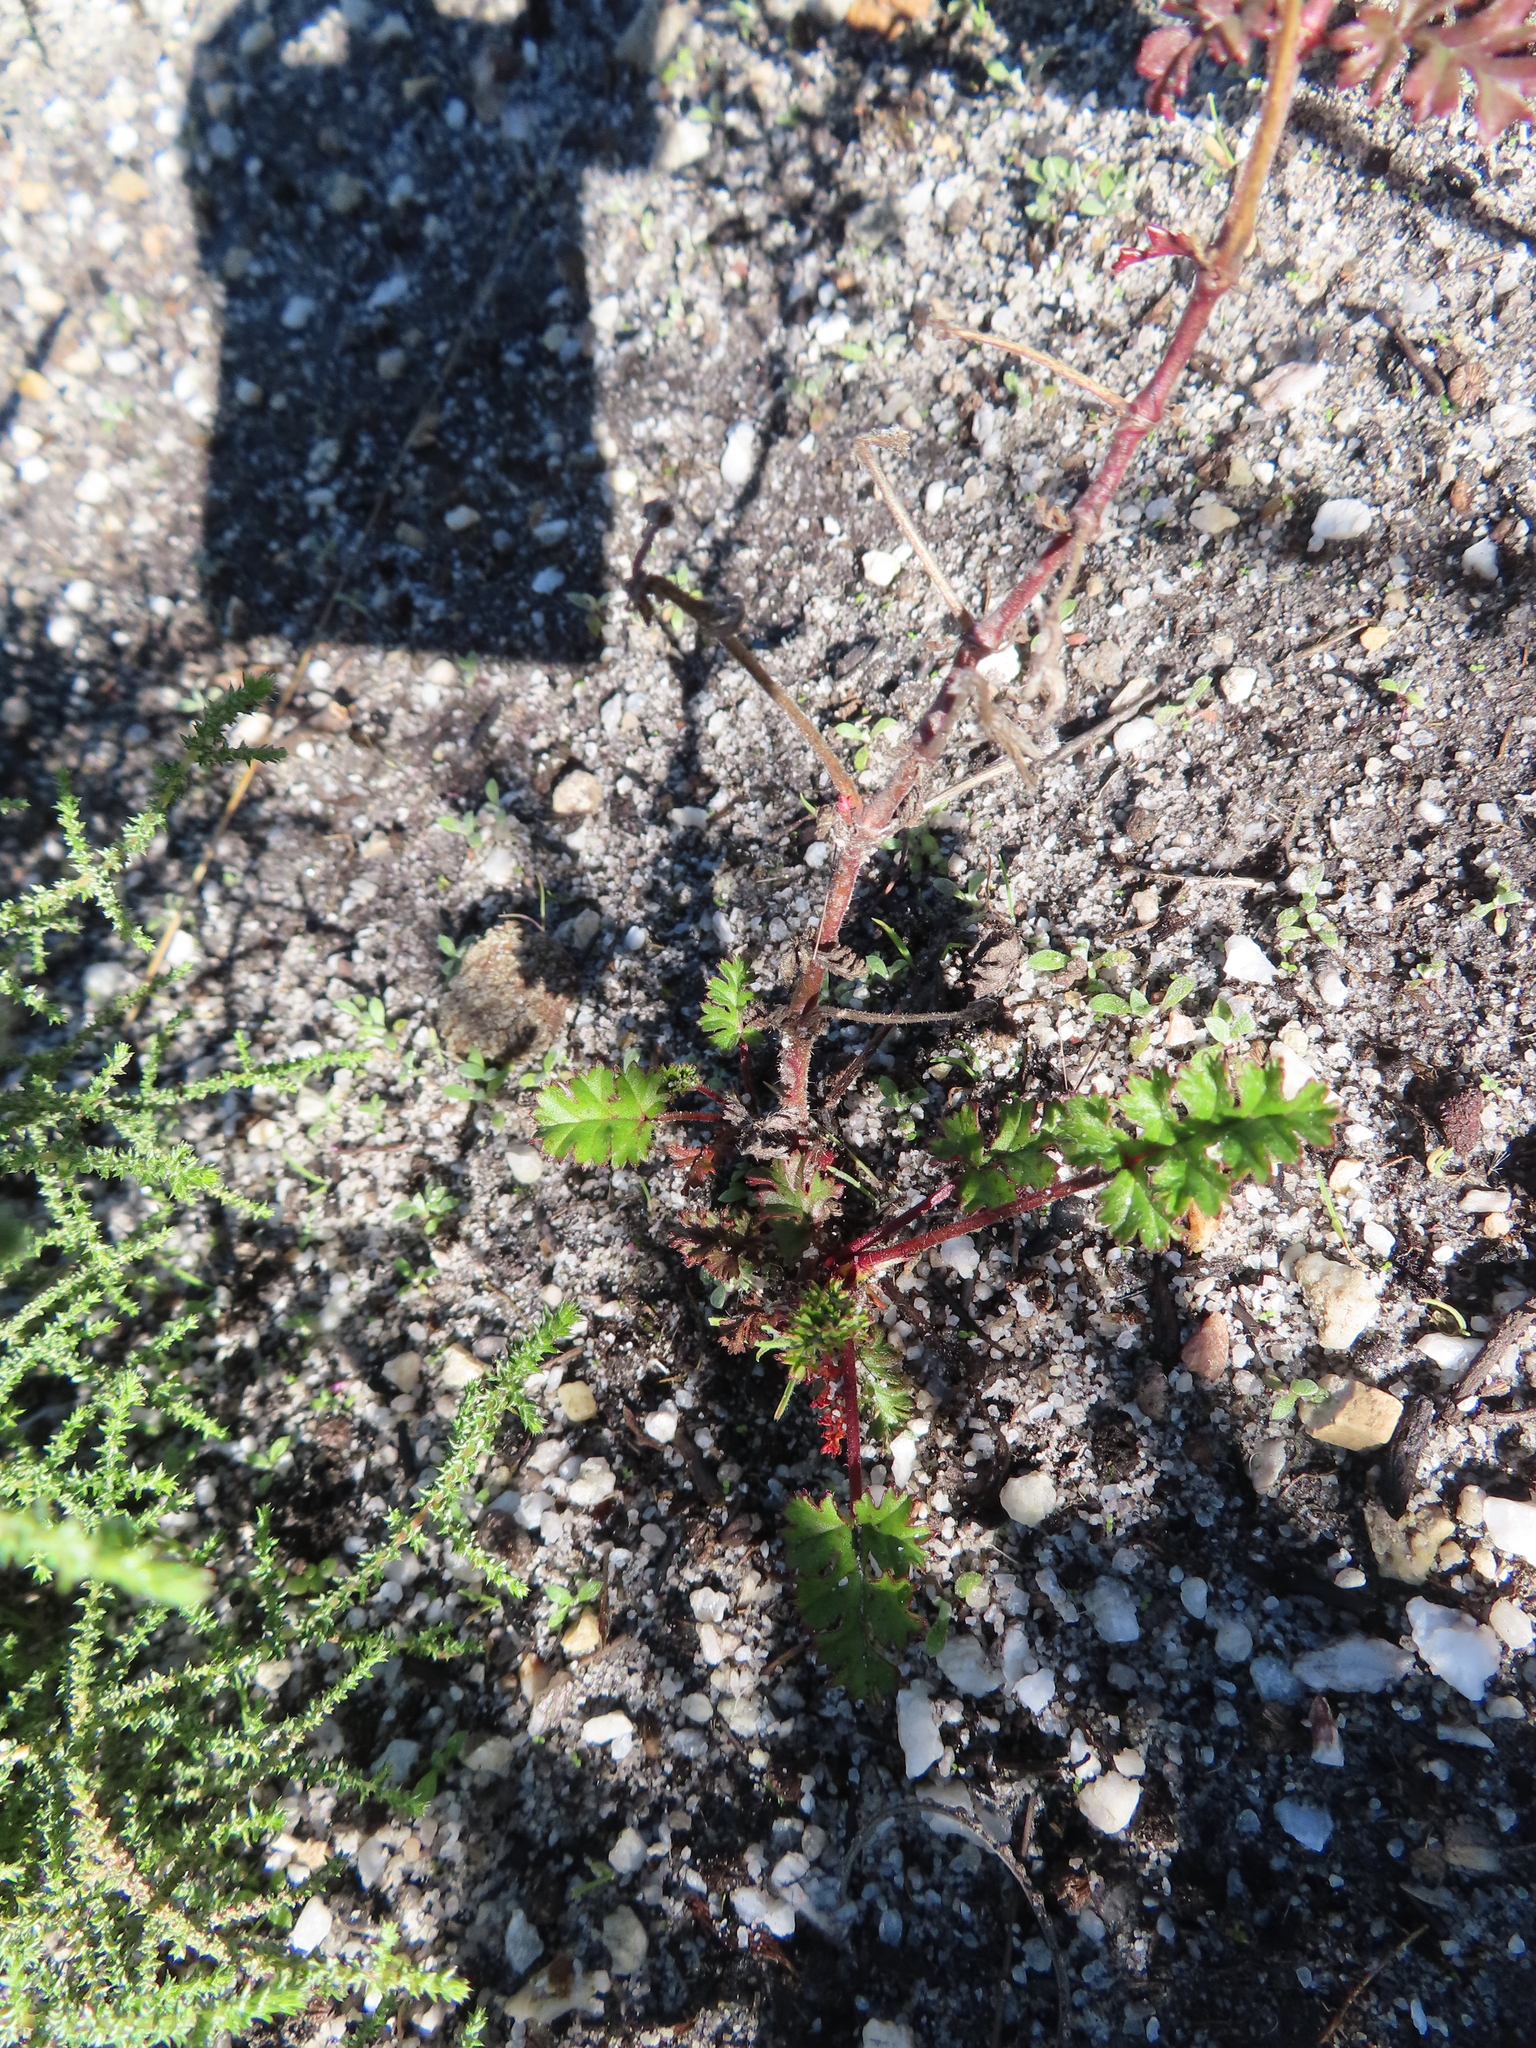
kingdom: Plantae
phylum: Tracheophyta
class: Magnoliopsida
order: Geraniales
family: Geraniaceae
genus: Pelargonium
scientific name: Pelargonium myrrhifolium
